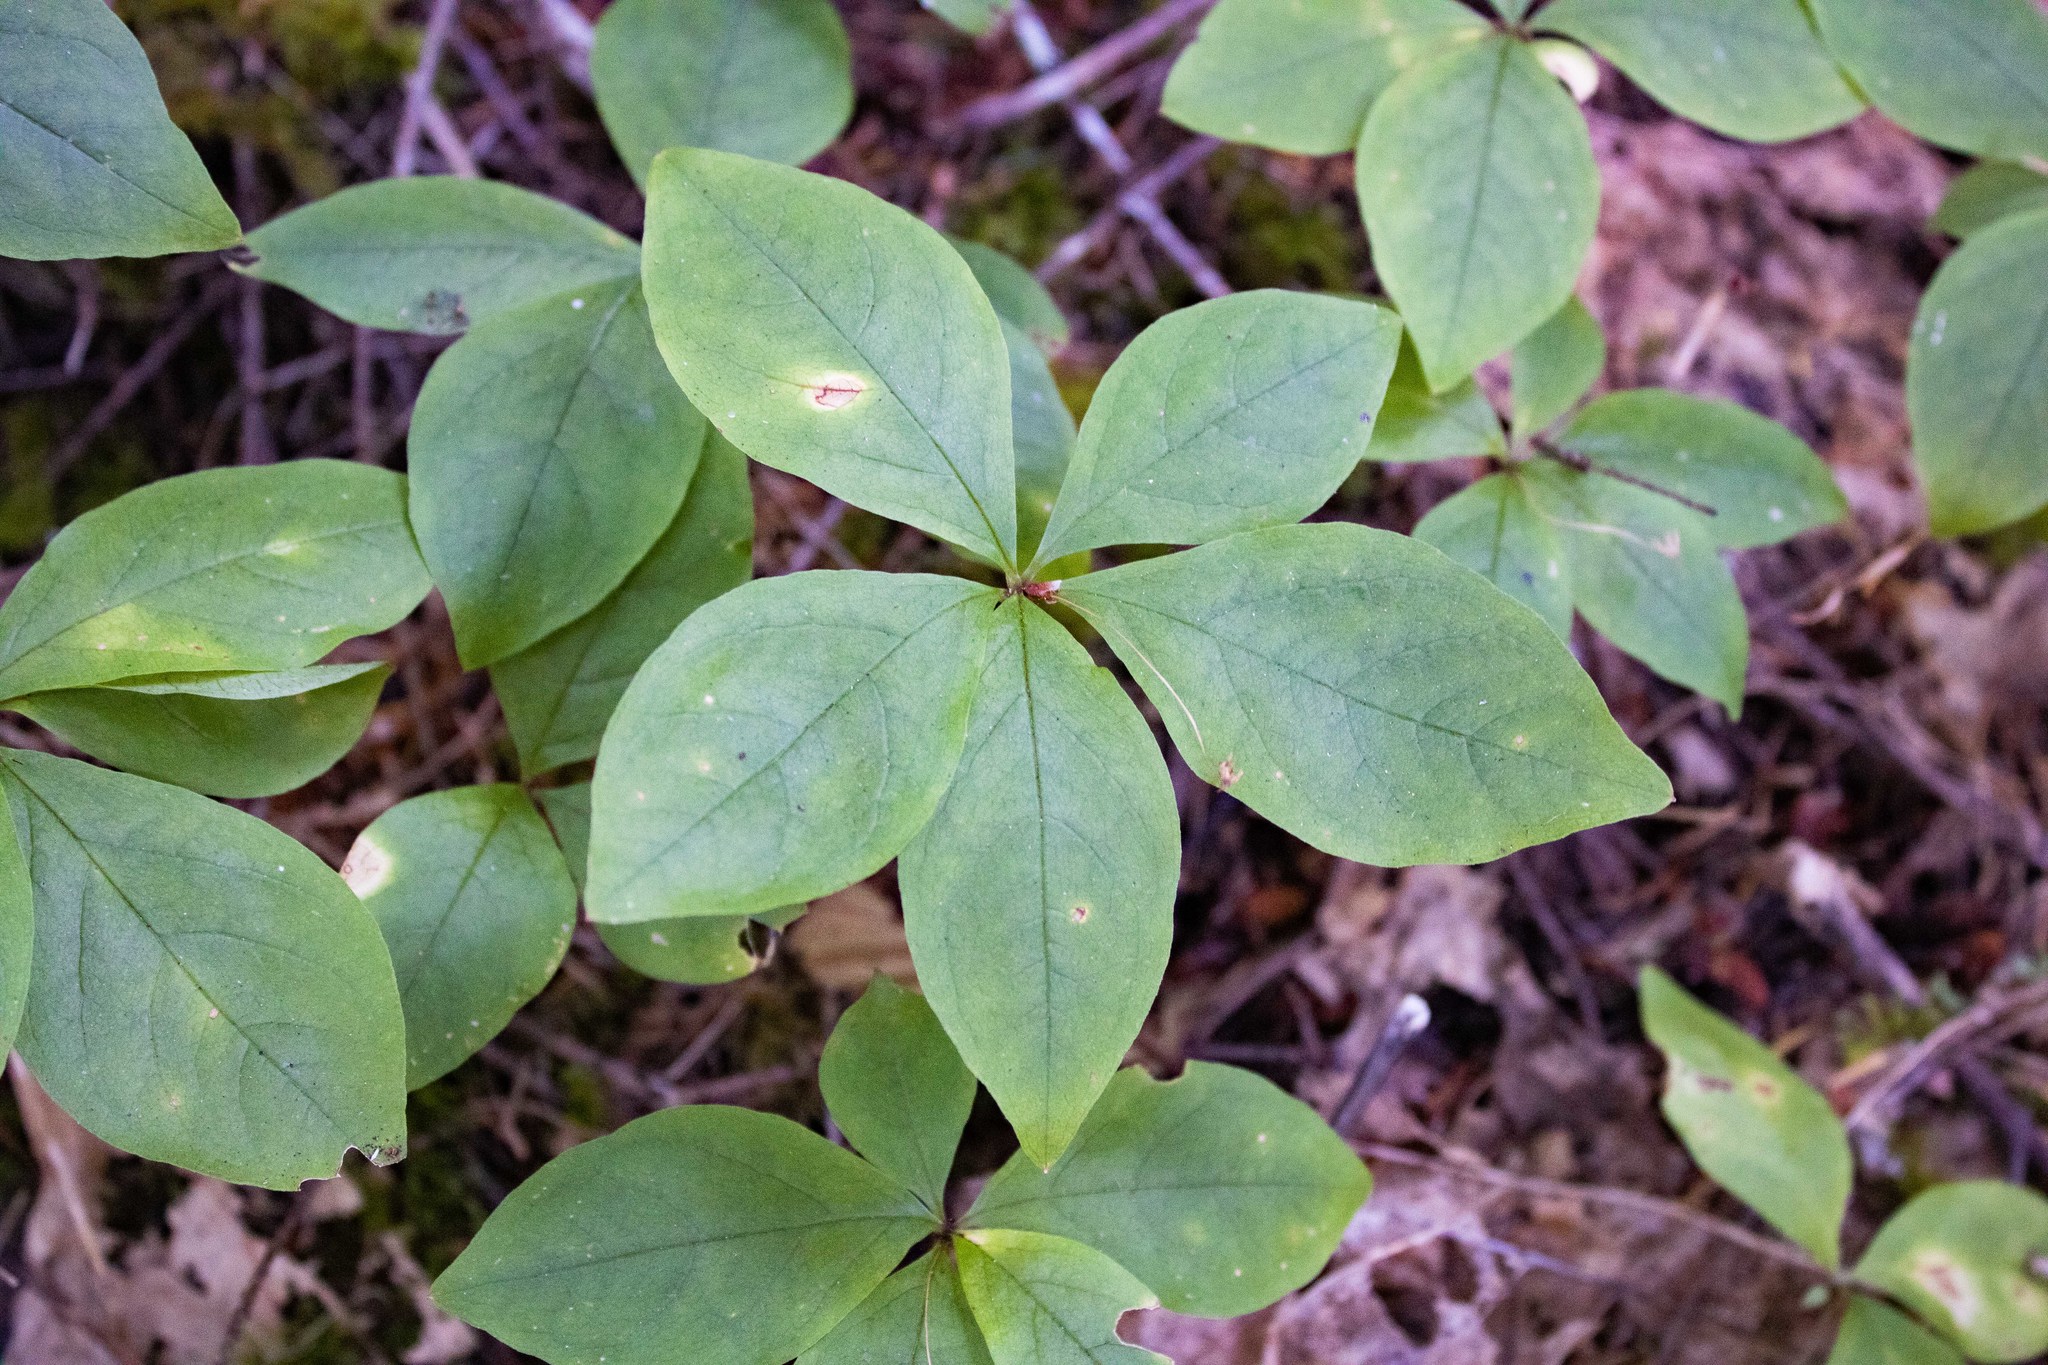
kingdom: Plantae
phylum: Tracheophyta
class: Magnoliopsida
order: Ericales
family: Primulaceae
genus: Lysimachia
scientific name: Lysimachia latifolia
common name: Pacific starflower
